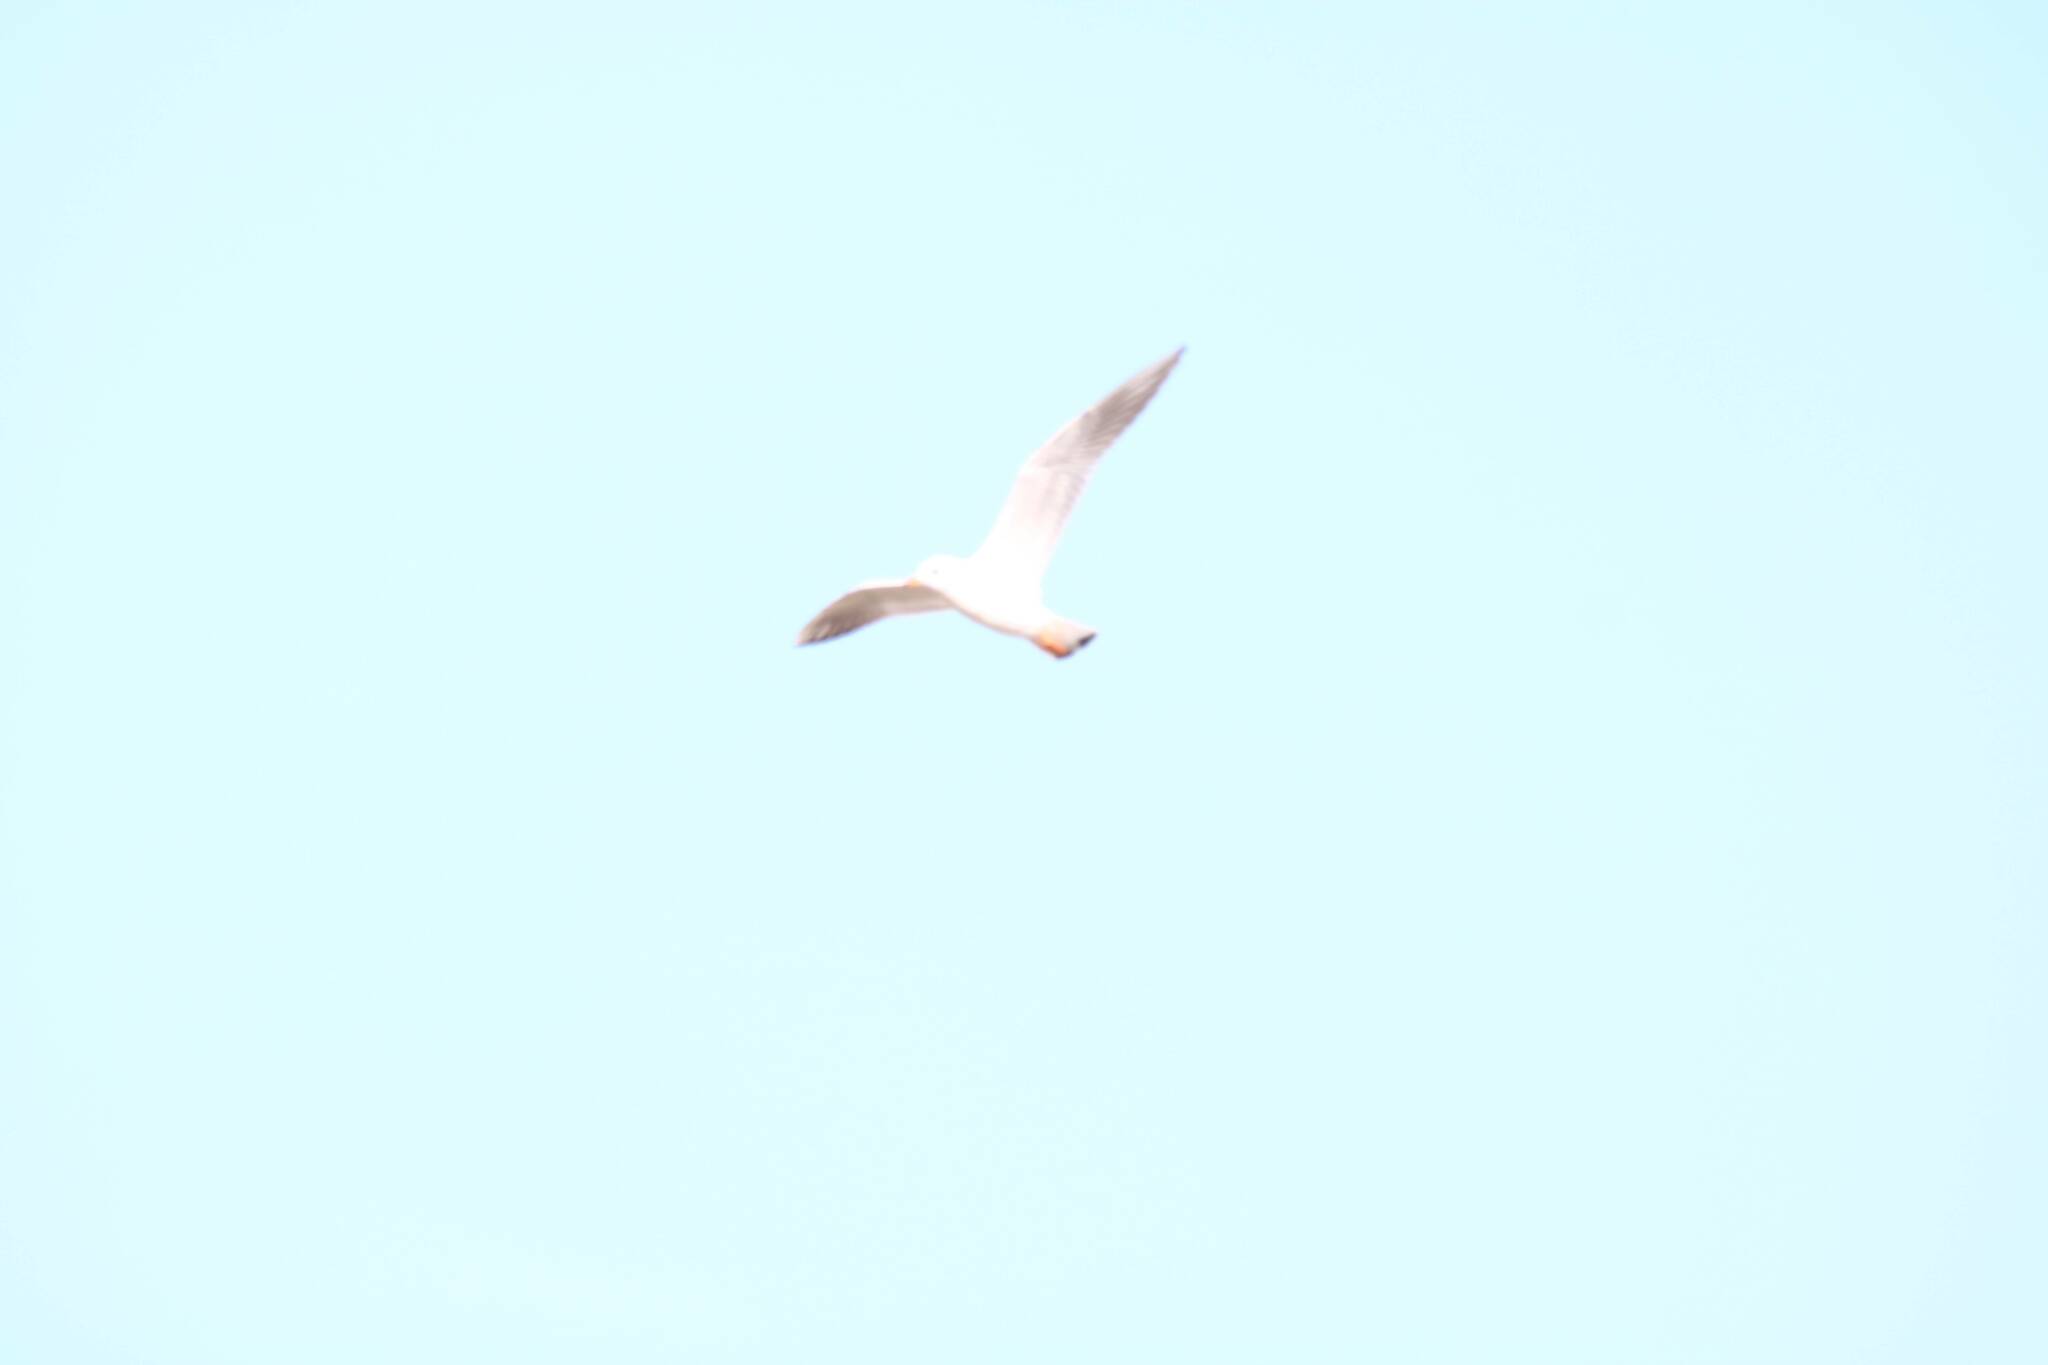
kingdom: Animalia
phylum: Chordata
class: Aves
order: Charadriiformes
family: Laridae
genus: Chroicocephalus
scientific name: Chroicocephalus ridibundus
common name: Black-headed gull
